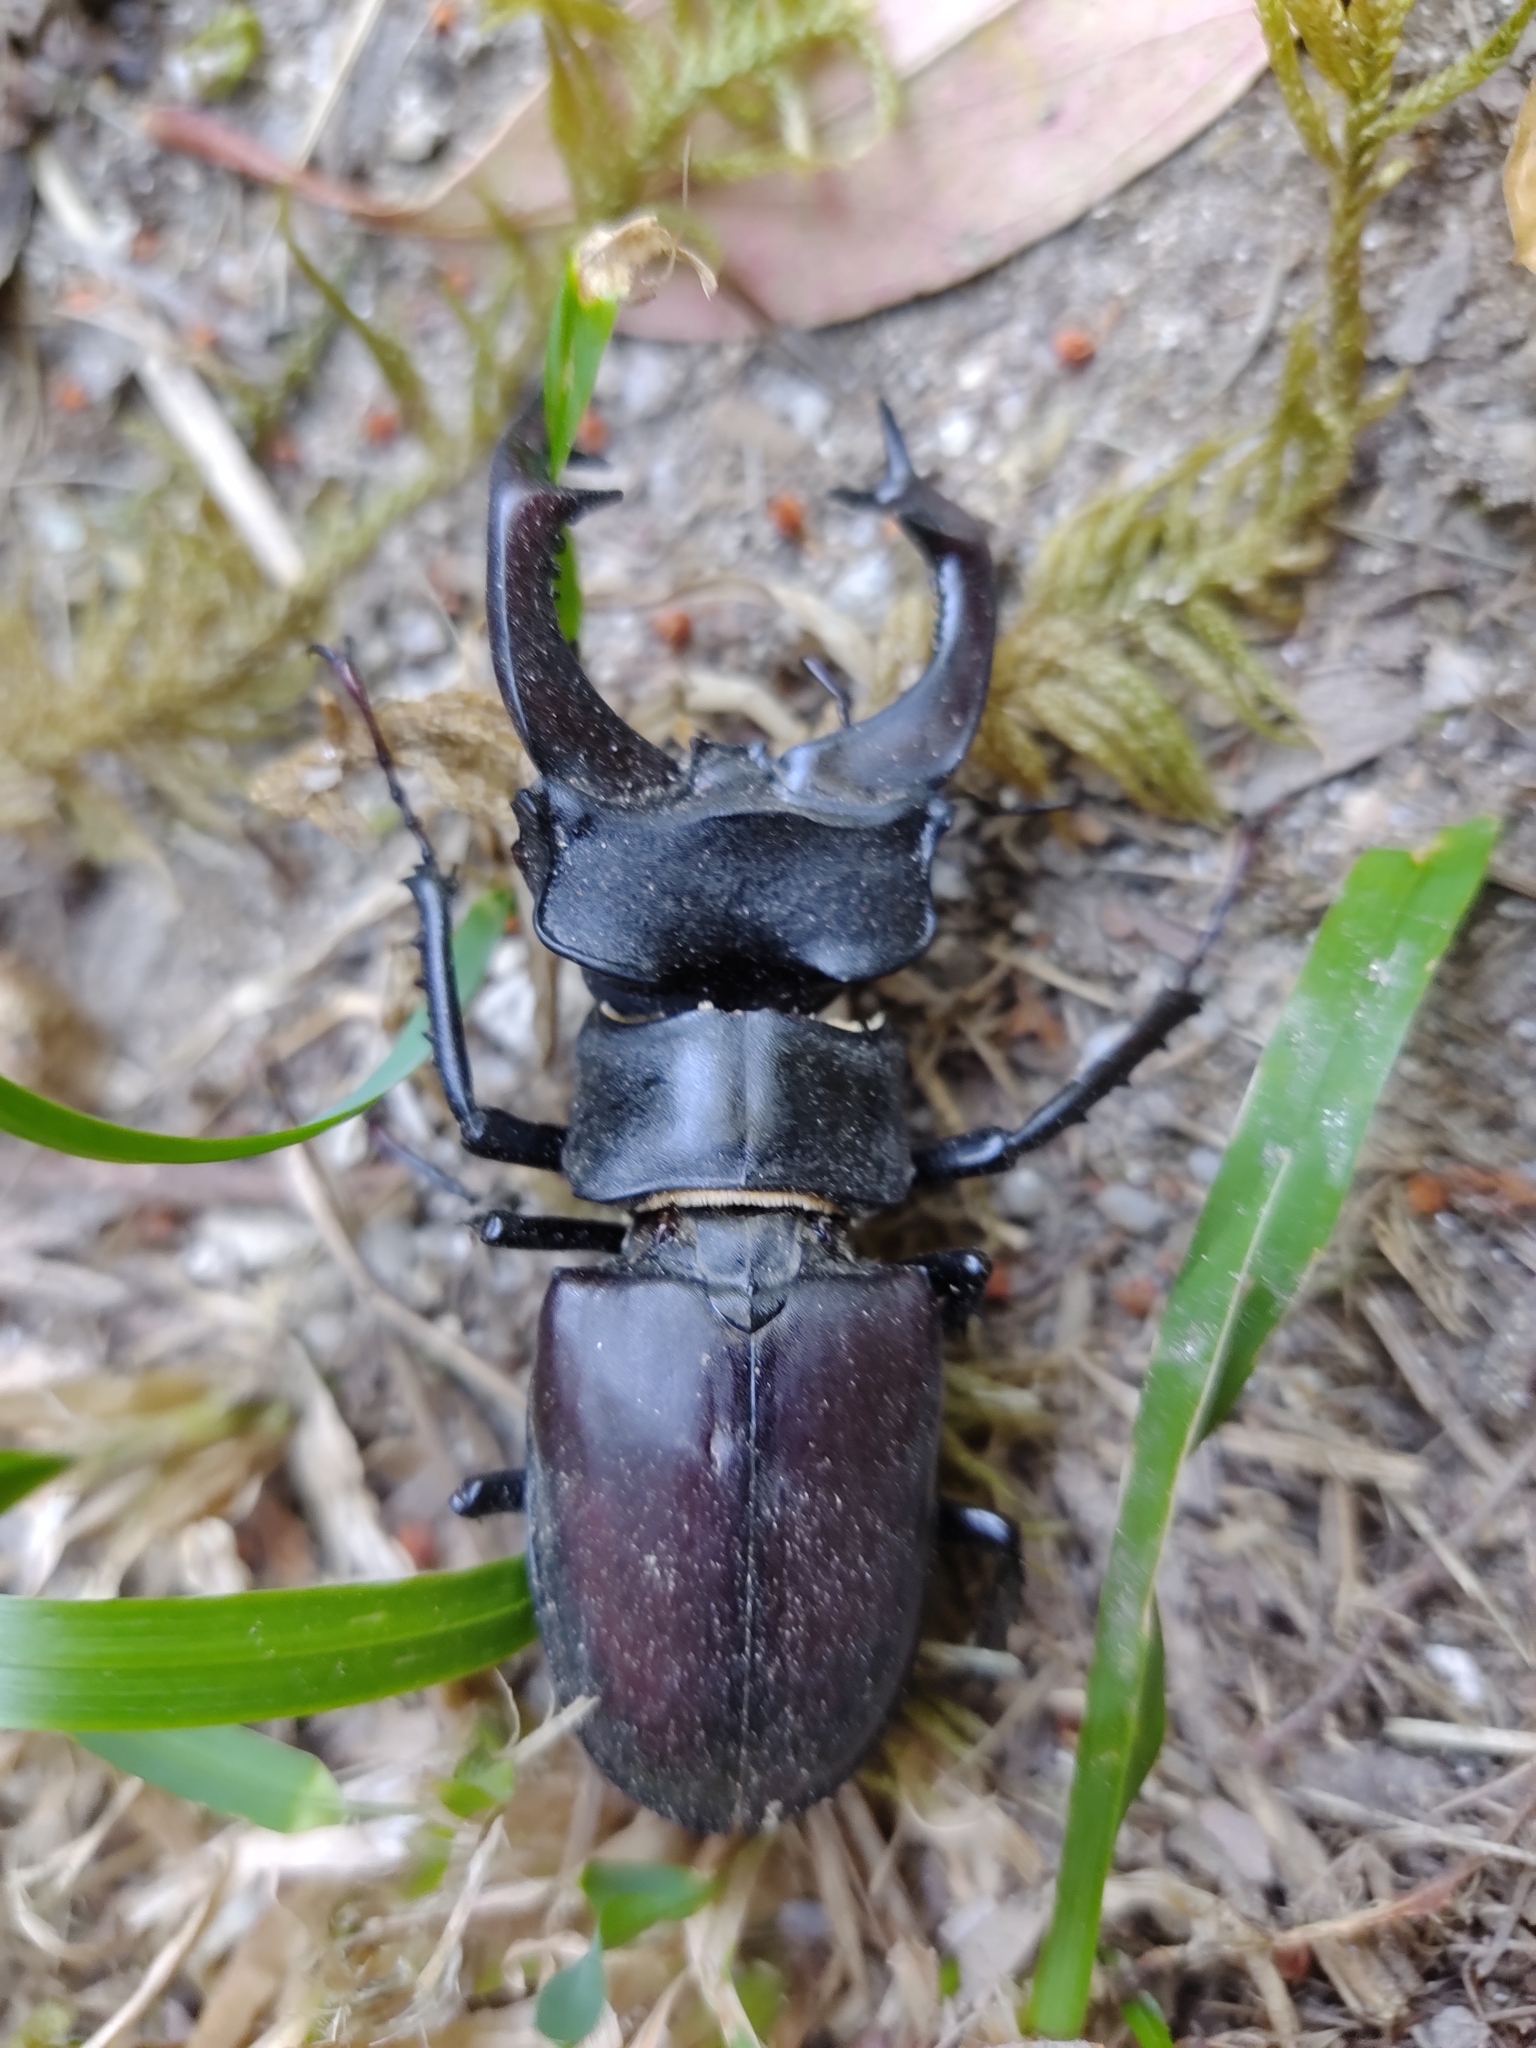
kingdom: Animalia
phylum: Arthropoda
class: Insecta
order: Coleoptera
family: Lucanidae
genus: Lucanus
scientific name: Lucanus cervus
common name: Stag beetle
